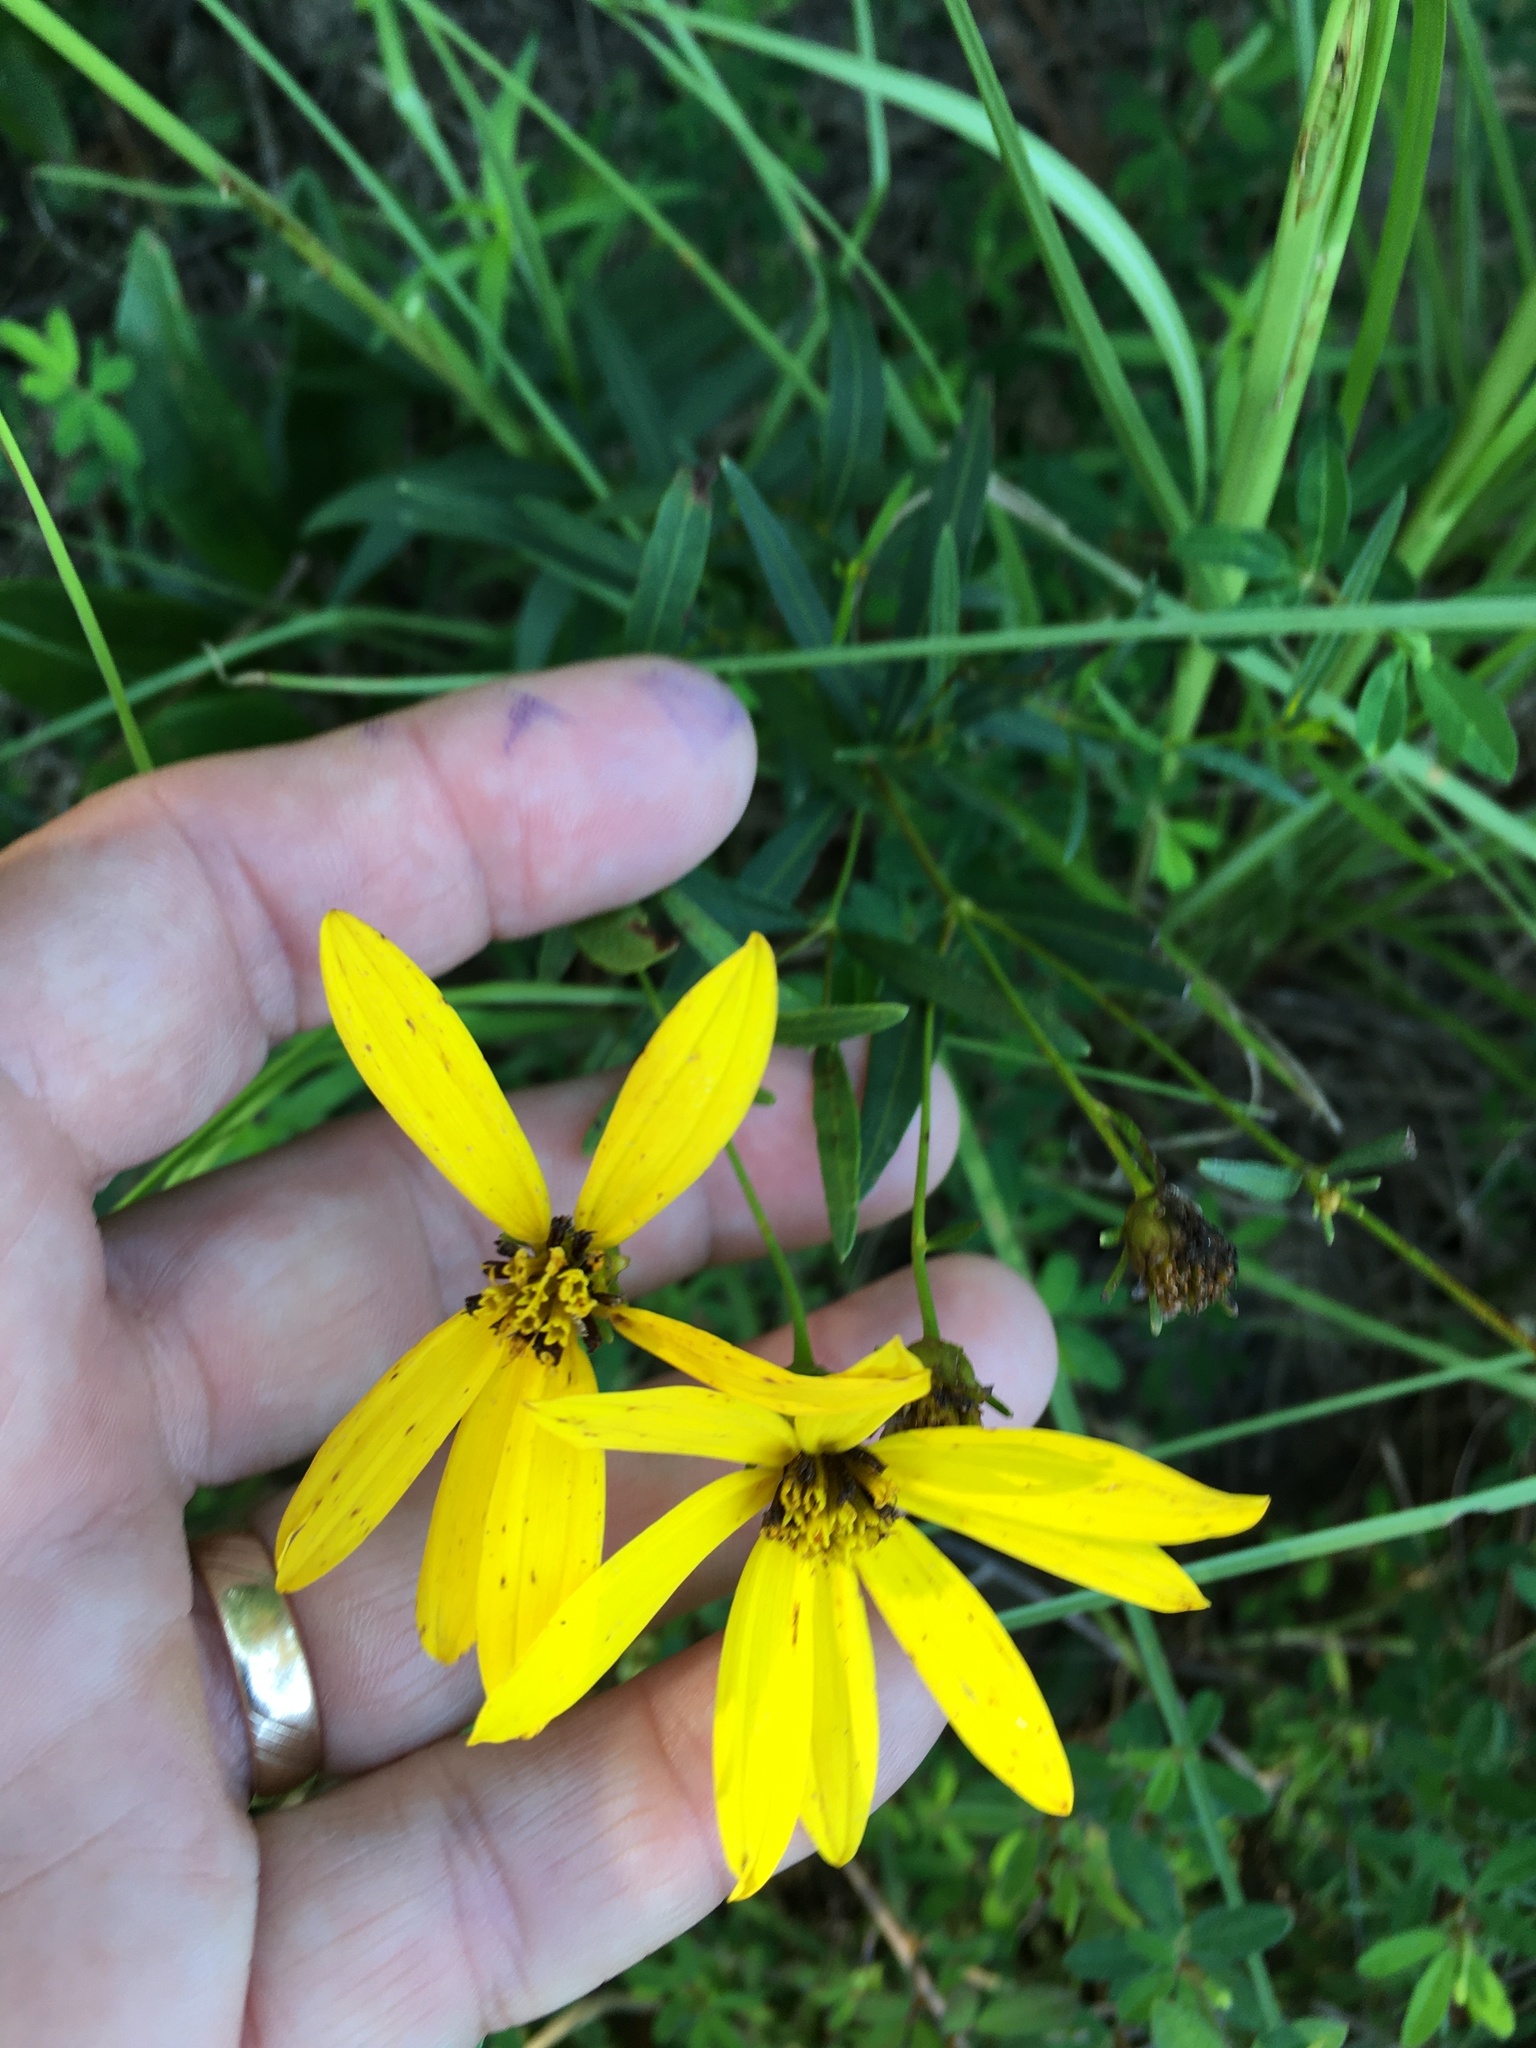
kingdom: Plantae
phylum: Tracheophyta
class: Magnoliopsida
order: Asterales
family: Asteraceae
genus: Coreopsis
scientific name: Coreopsis major
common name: Forest tickseed
